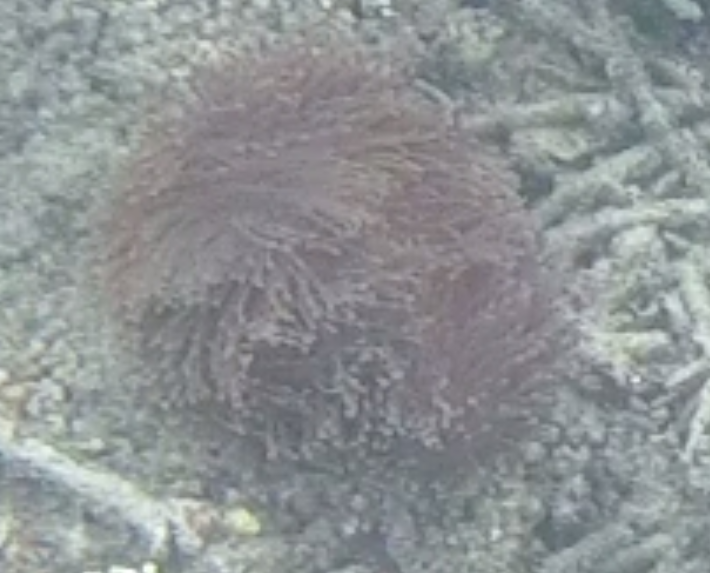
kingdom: Animalia
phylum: Cnidaria
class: Anthozoa
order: Actiniaria
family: Stichodactylidae
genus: Radianthus
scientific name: Radianthus magnifica
